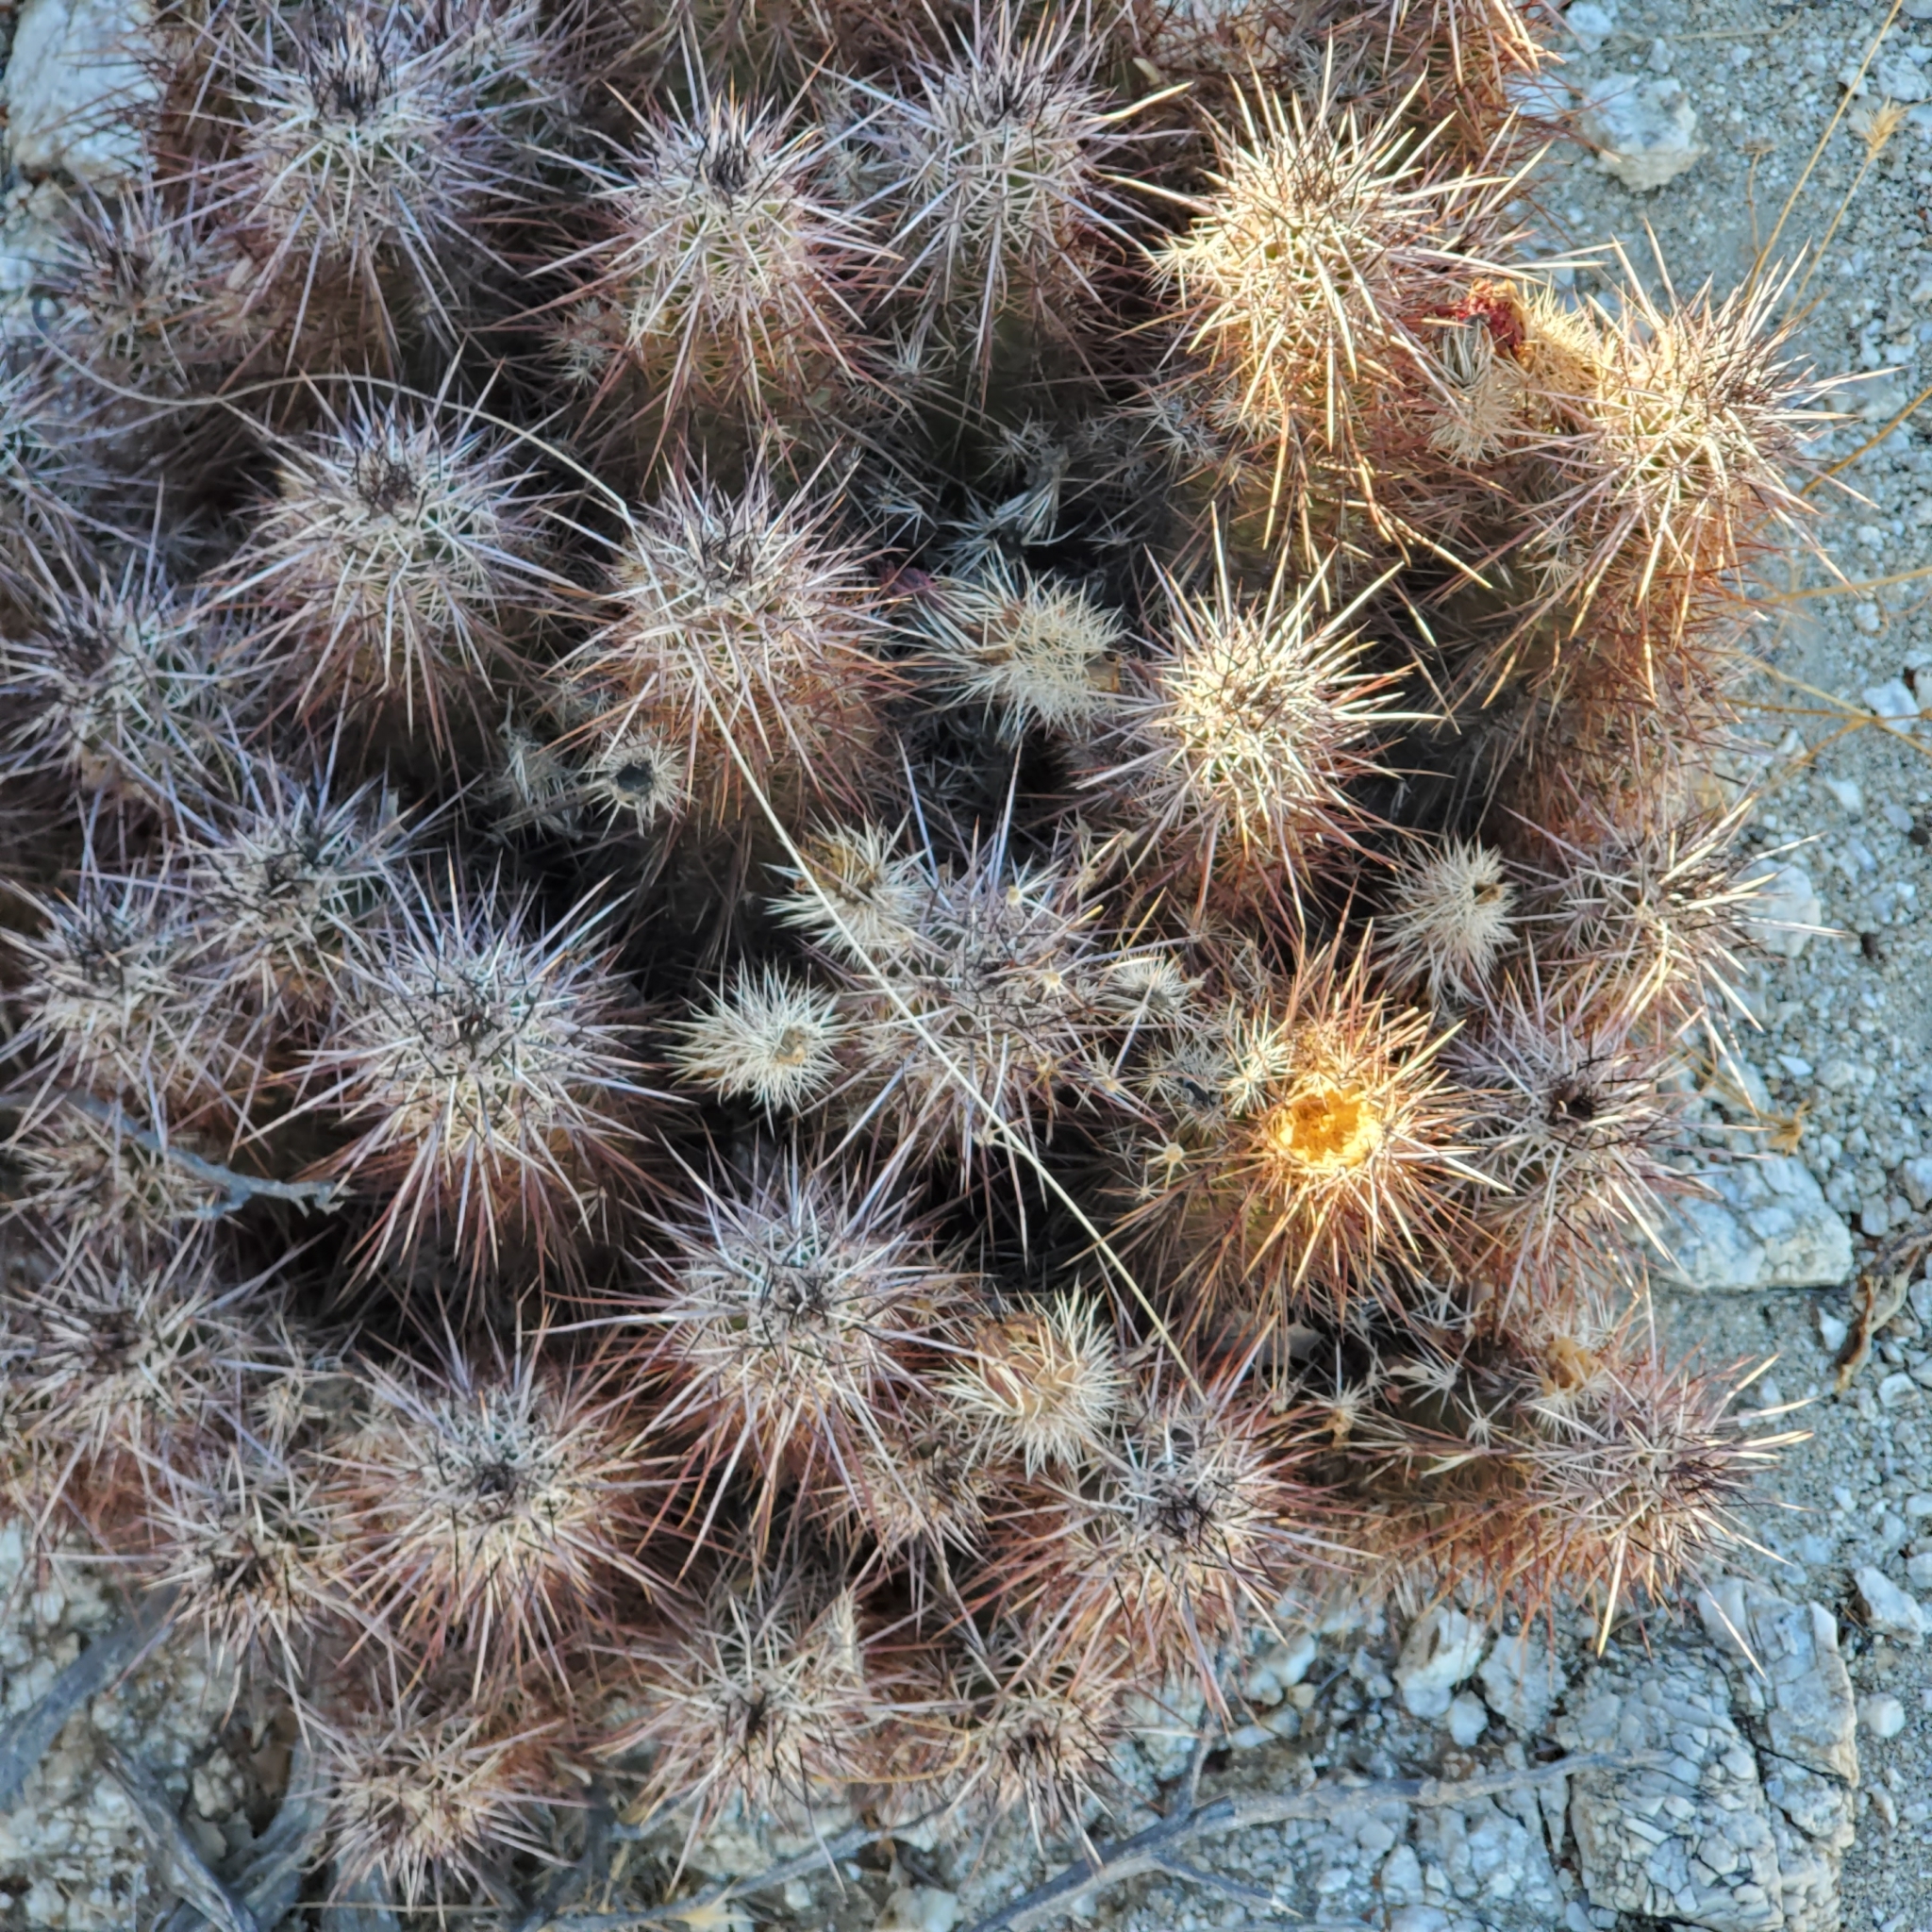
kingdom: Plantae
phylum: Tracheophyta
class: Magnoliopsida
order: Caryophyllales
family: Cactaceae
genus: Echinocereus
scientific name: Echinocereus engelmannii
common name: Engelmann's hedgehog cactus
